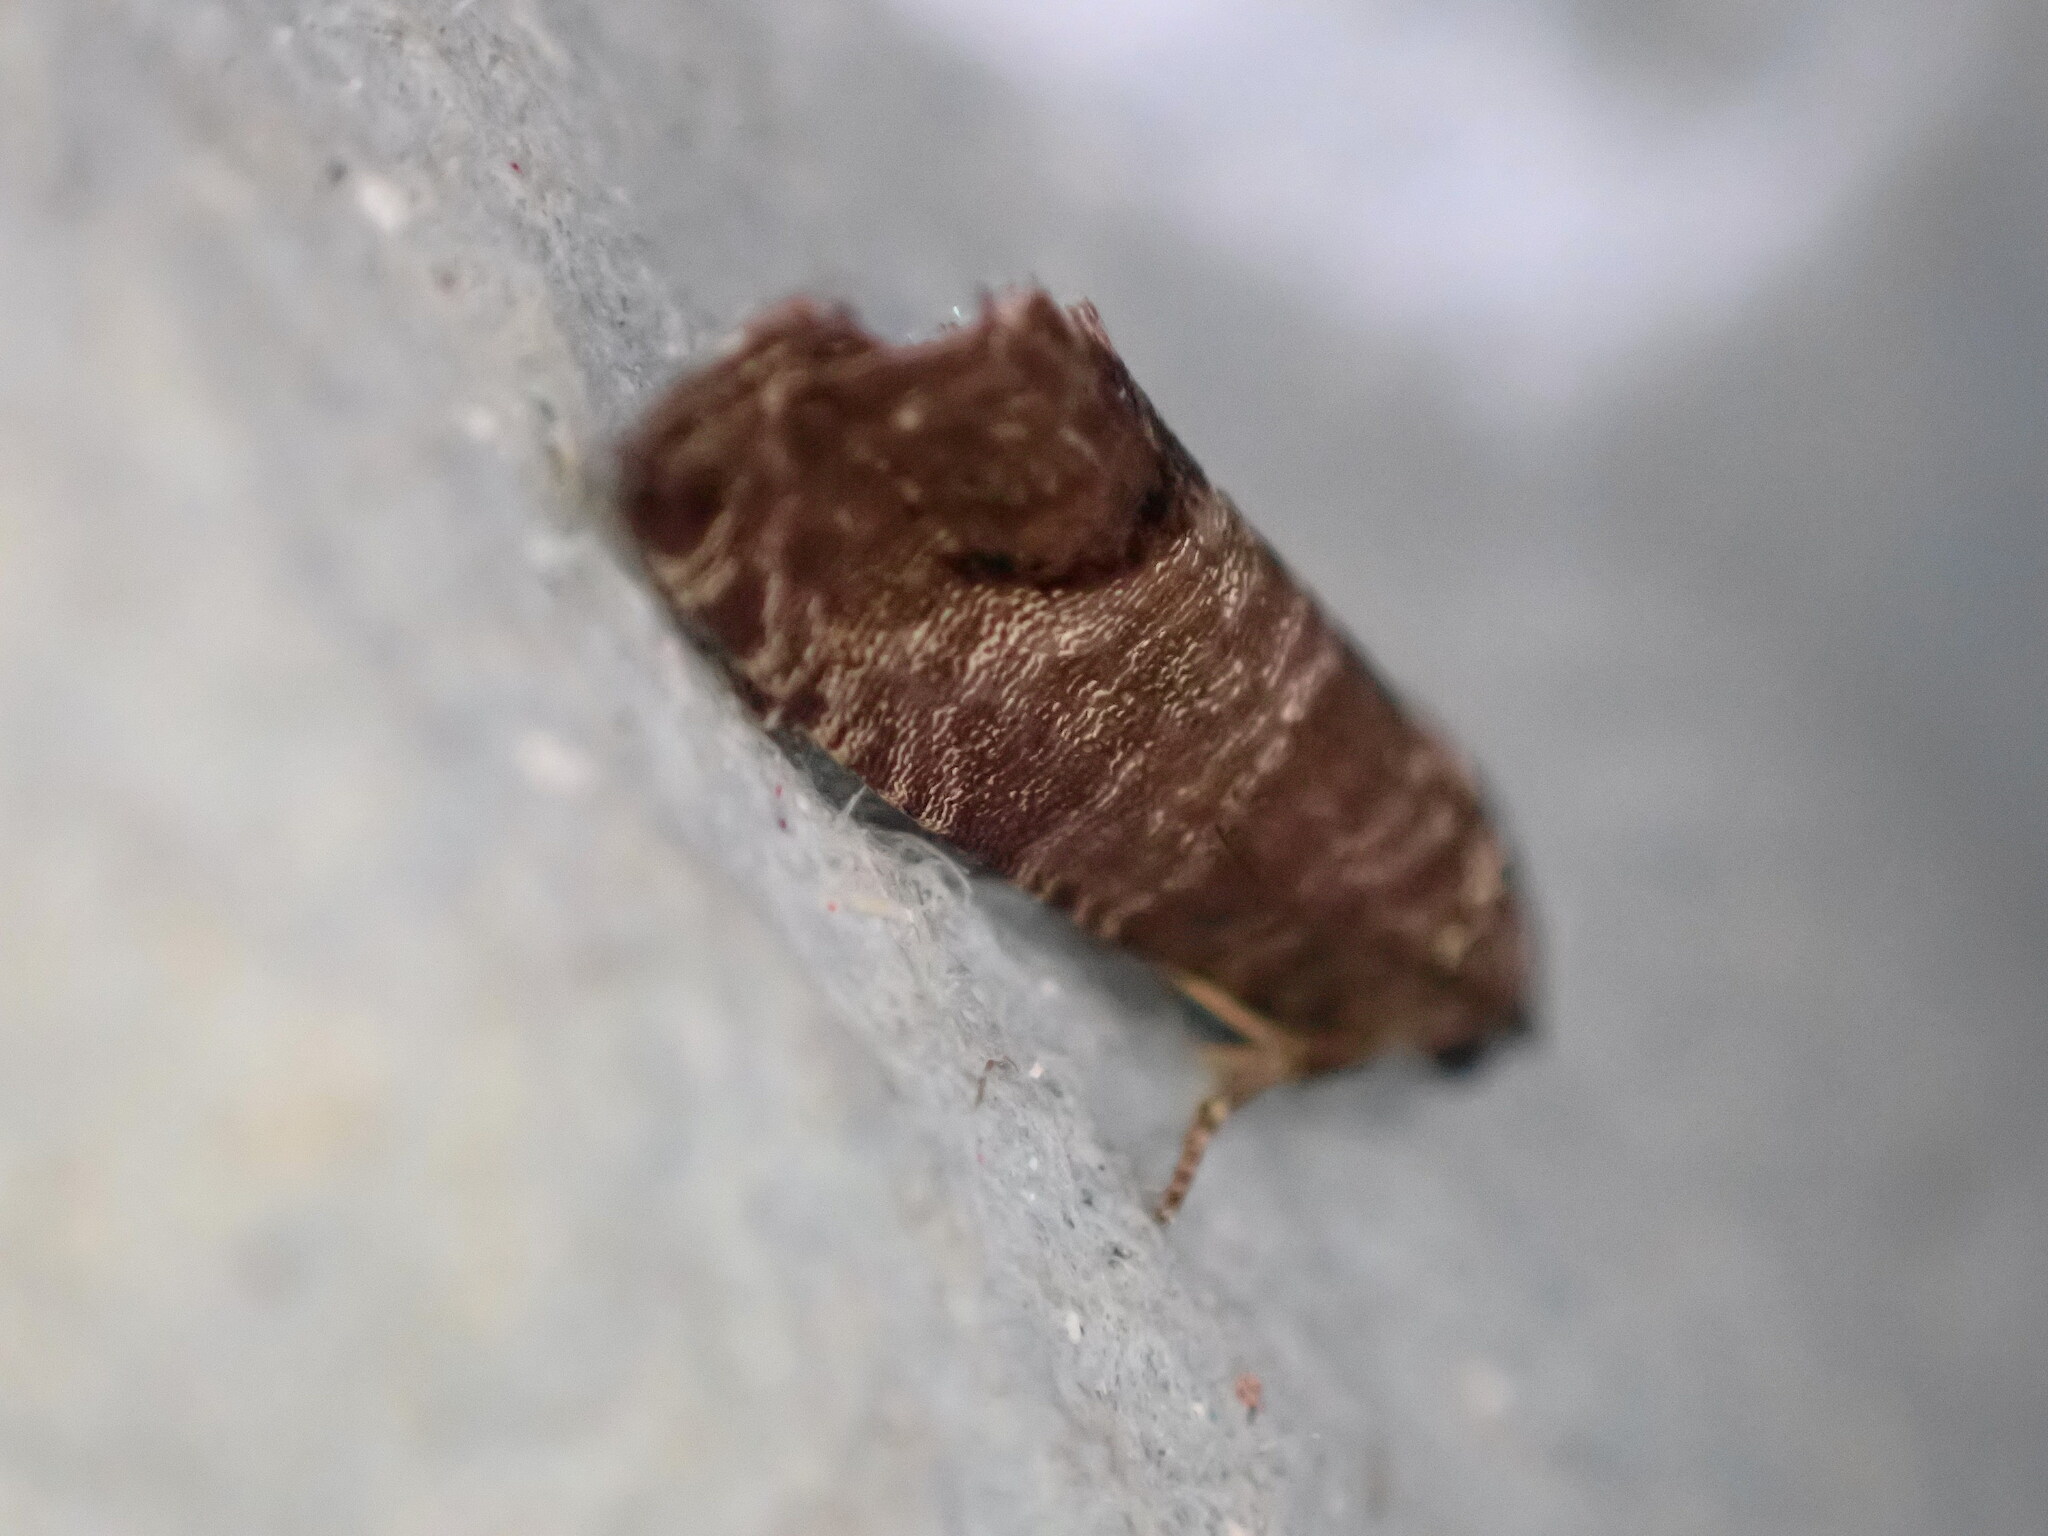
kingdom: Animalia
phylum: Arthropoda
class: Insecta
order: Lepidoptera
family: Tortricidae
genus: Cydia
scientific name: Cydia pomonella
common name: Codling moth
